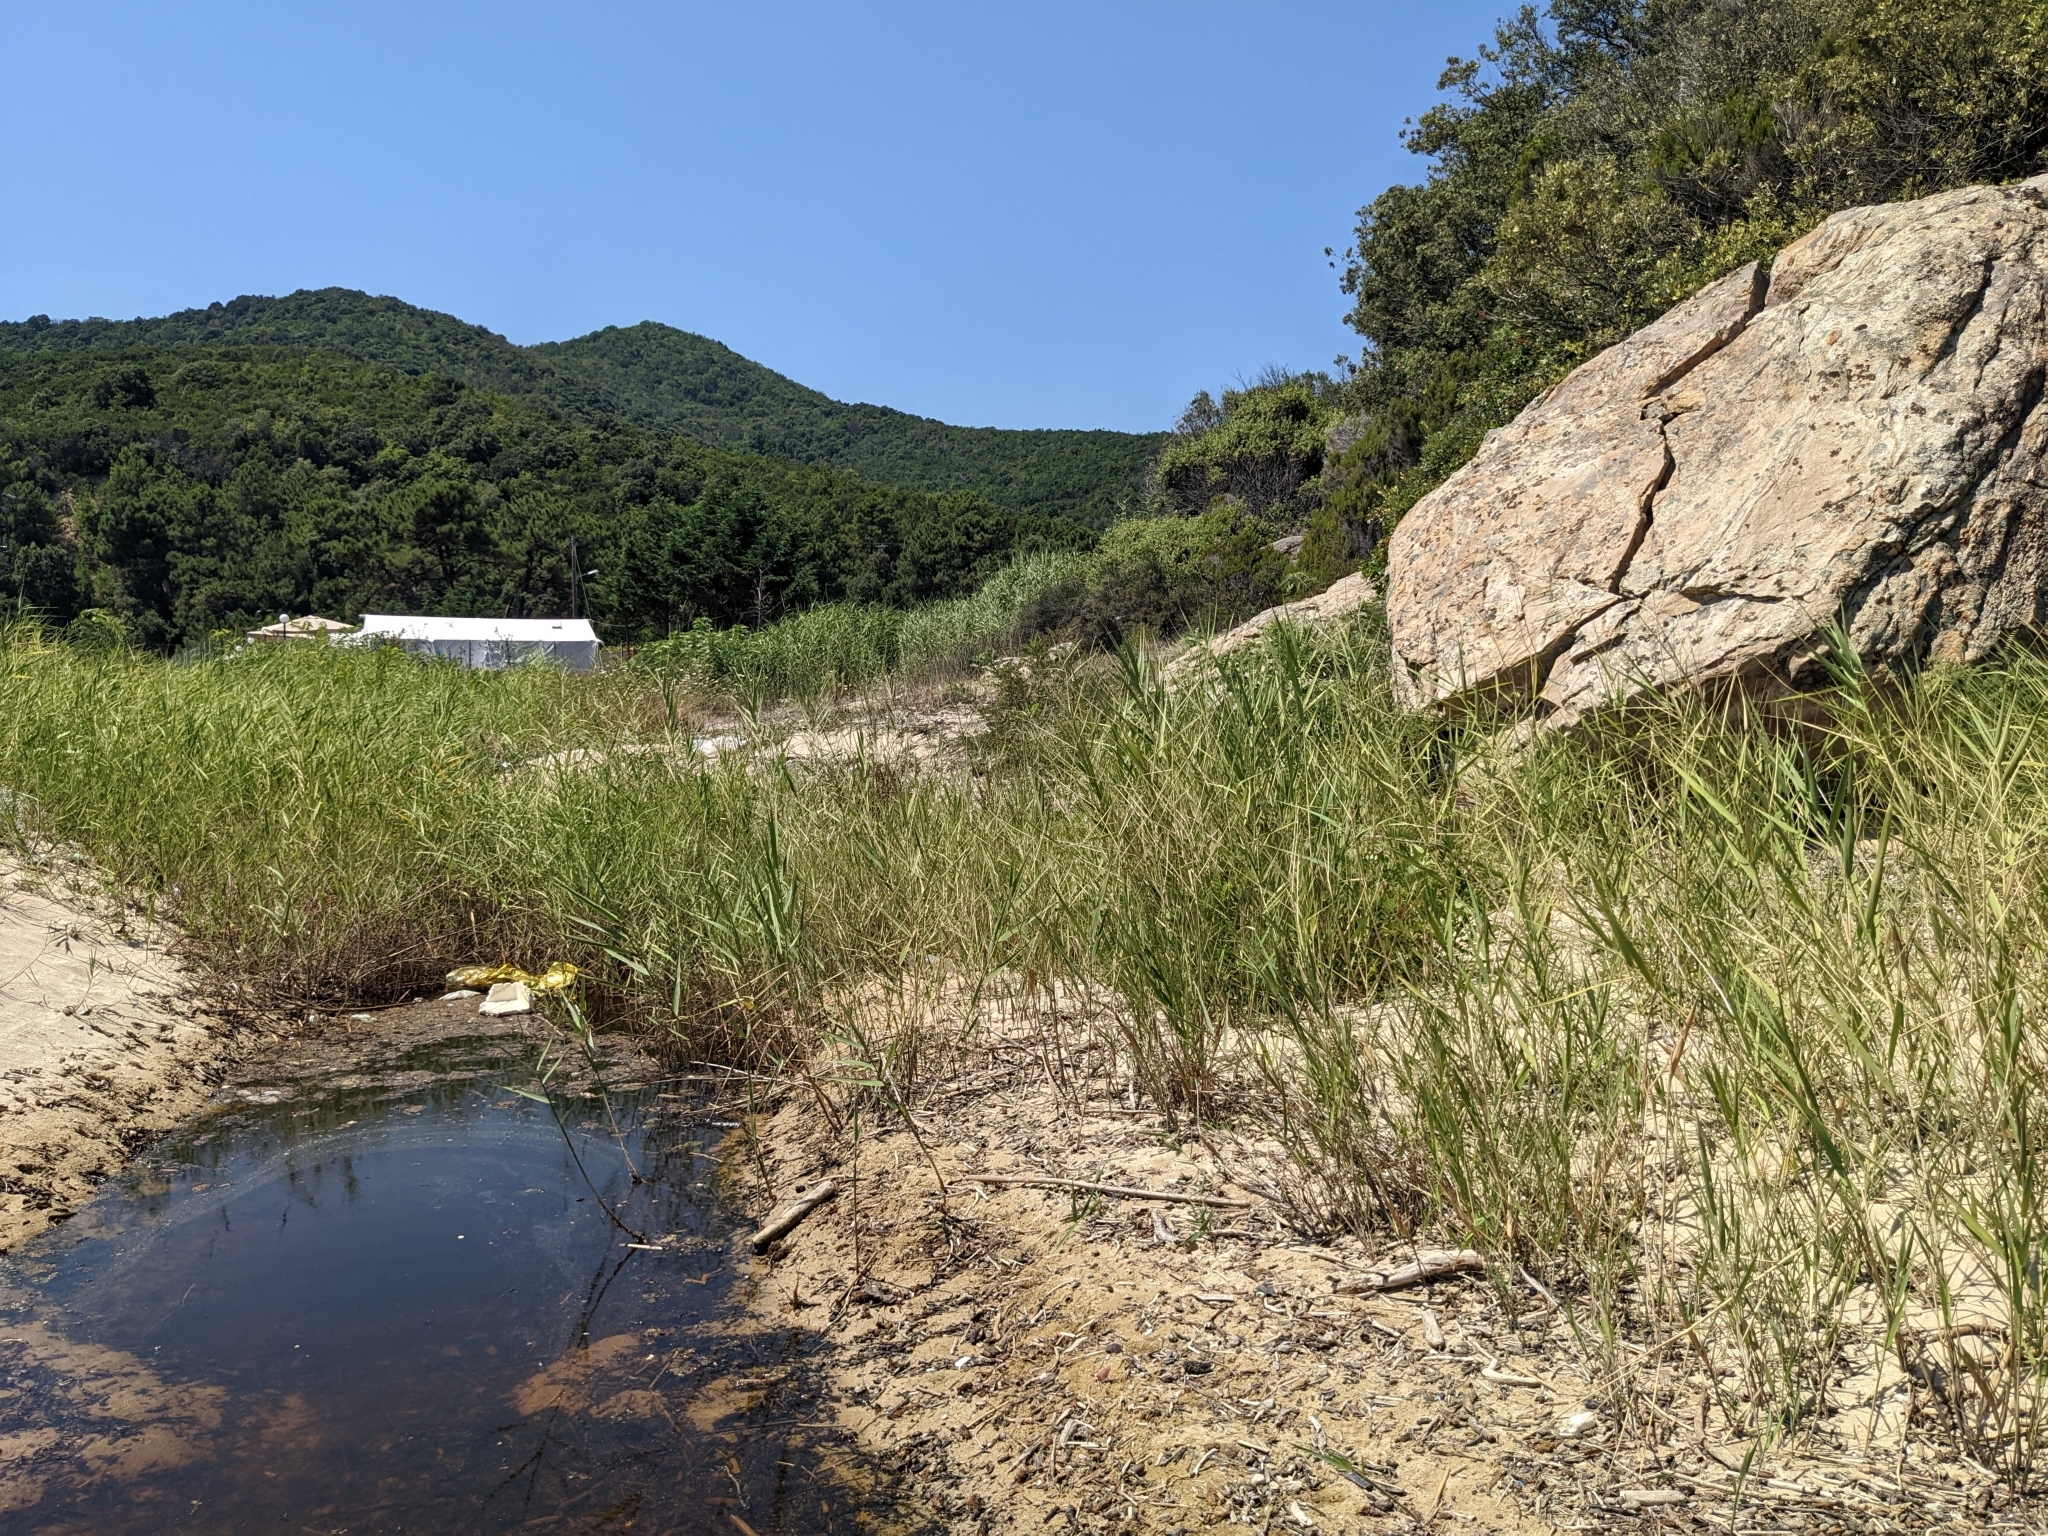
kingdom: Plantae
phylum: Tracheophyta
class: Liliopsida
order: Poales
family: Poaceae
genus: Phragmites
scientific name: Phragmites australis
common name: Common reed
